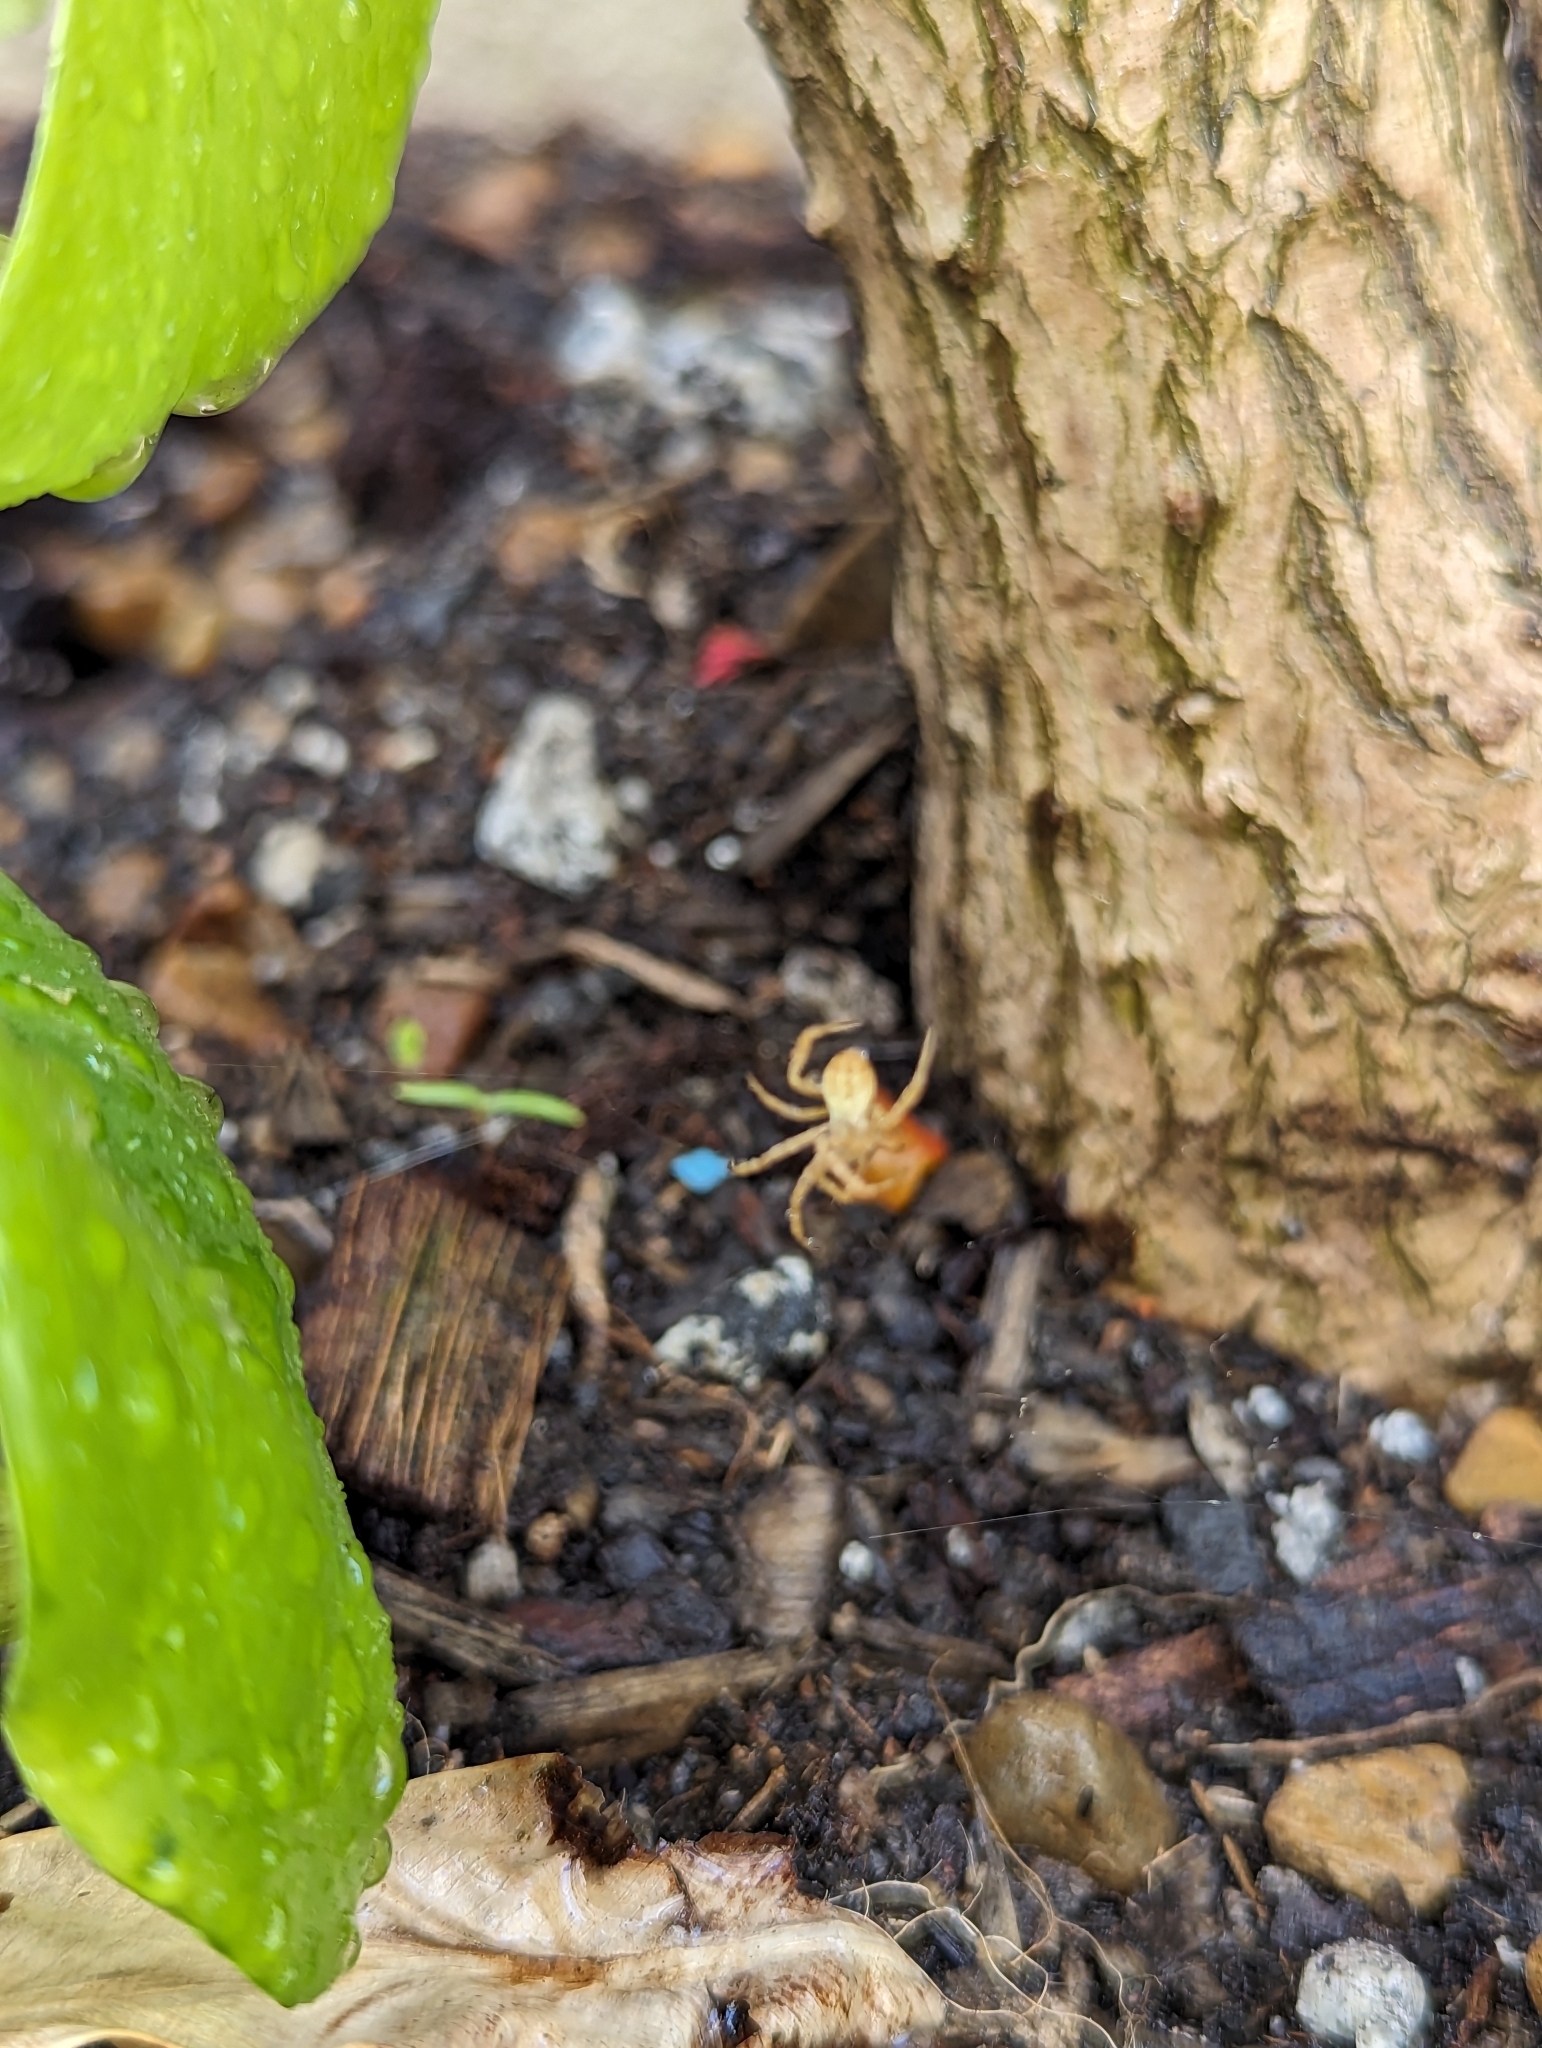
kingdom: Animalia
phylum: Arthropoda
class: Arachnida
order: Araneae
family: Araneidae
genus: Argiope
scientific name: Argiope keyserlingi
